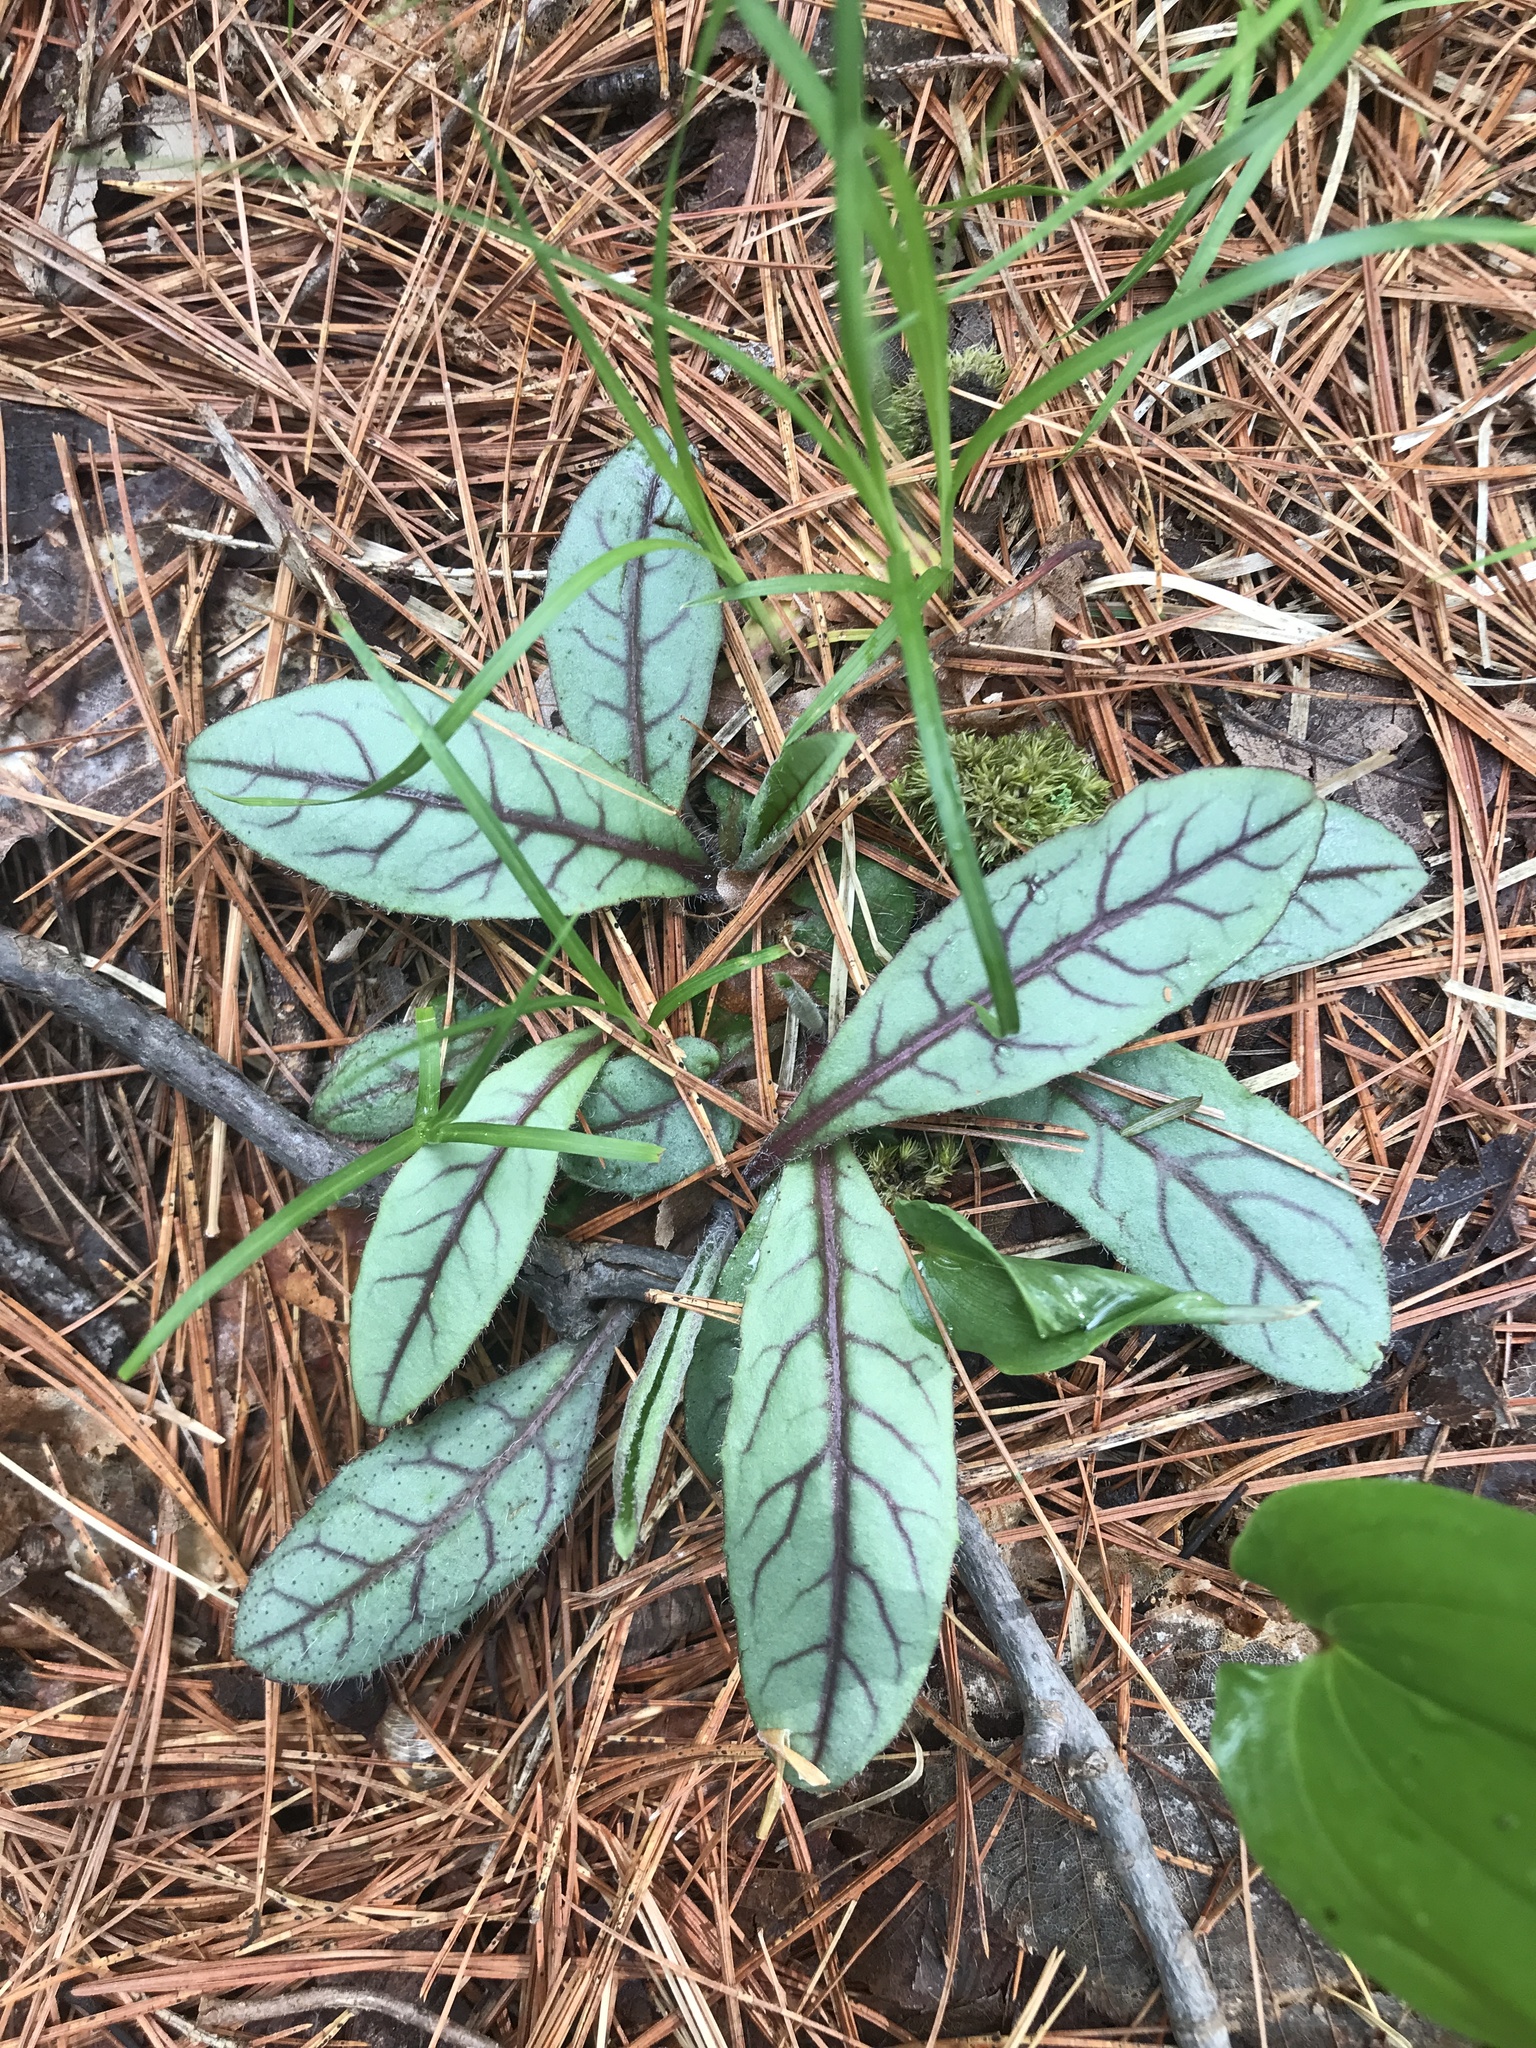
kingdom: Plantae
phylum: Tracheophyta
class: Magnoliopsida
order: Asterales
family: Asteraceae
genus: Hieracium
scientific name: Hieracium venosum
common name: Rattlesnake hawkweed
